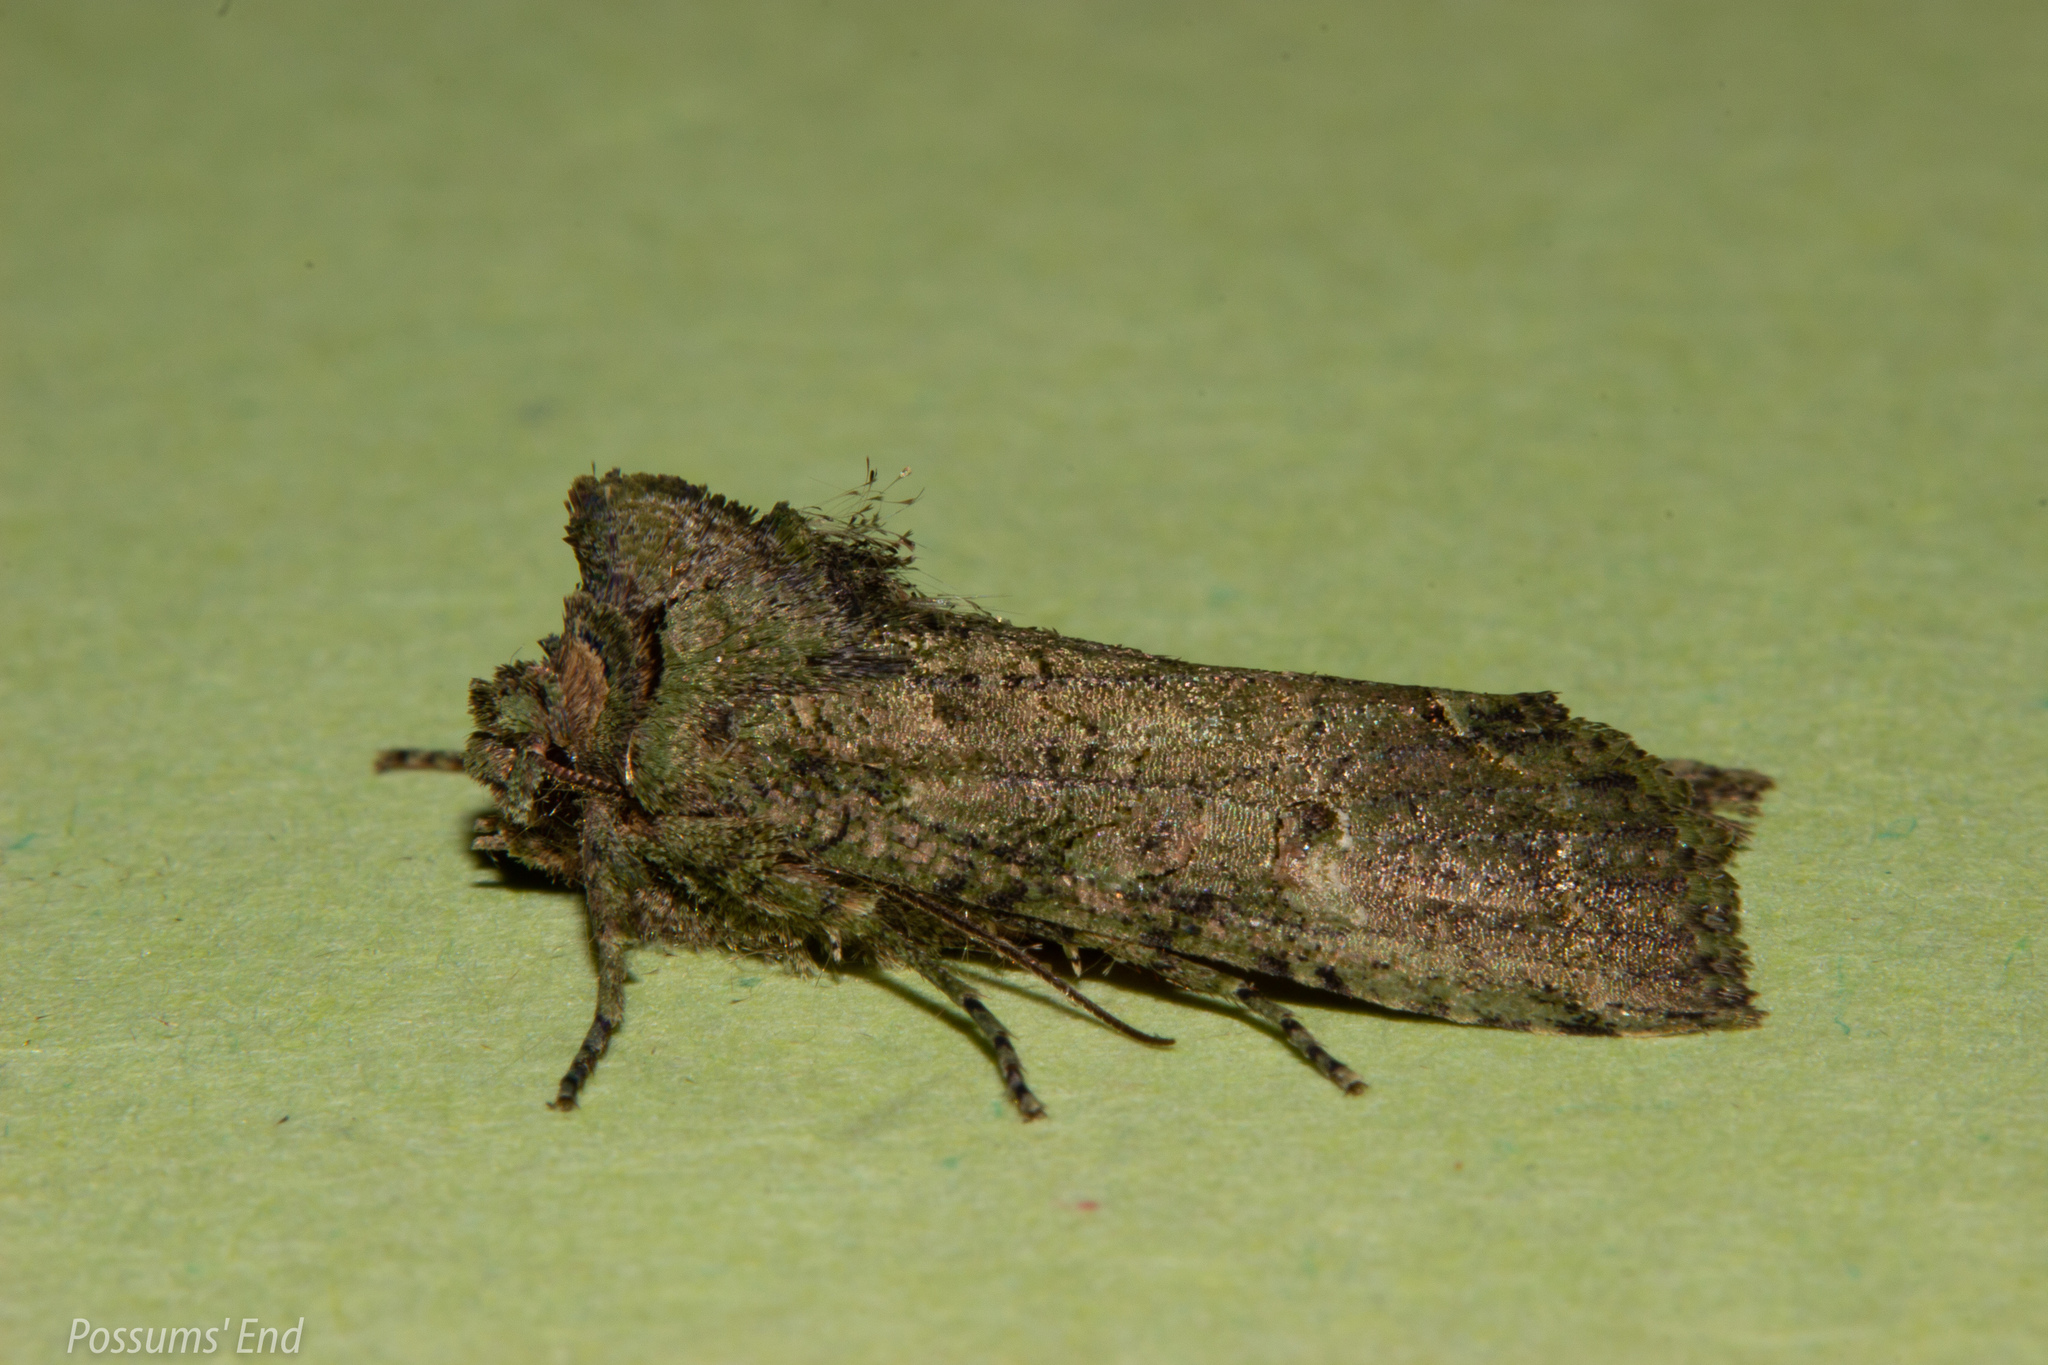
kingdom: Animalia
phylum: Arthropoda
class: Insecta
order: Lepidoptera
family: Noctuidae
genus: Meterana
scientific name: Meterana levis
